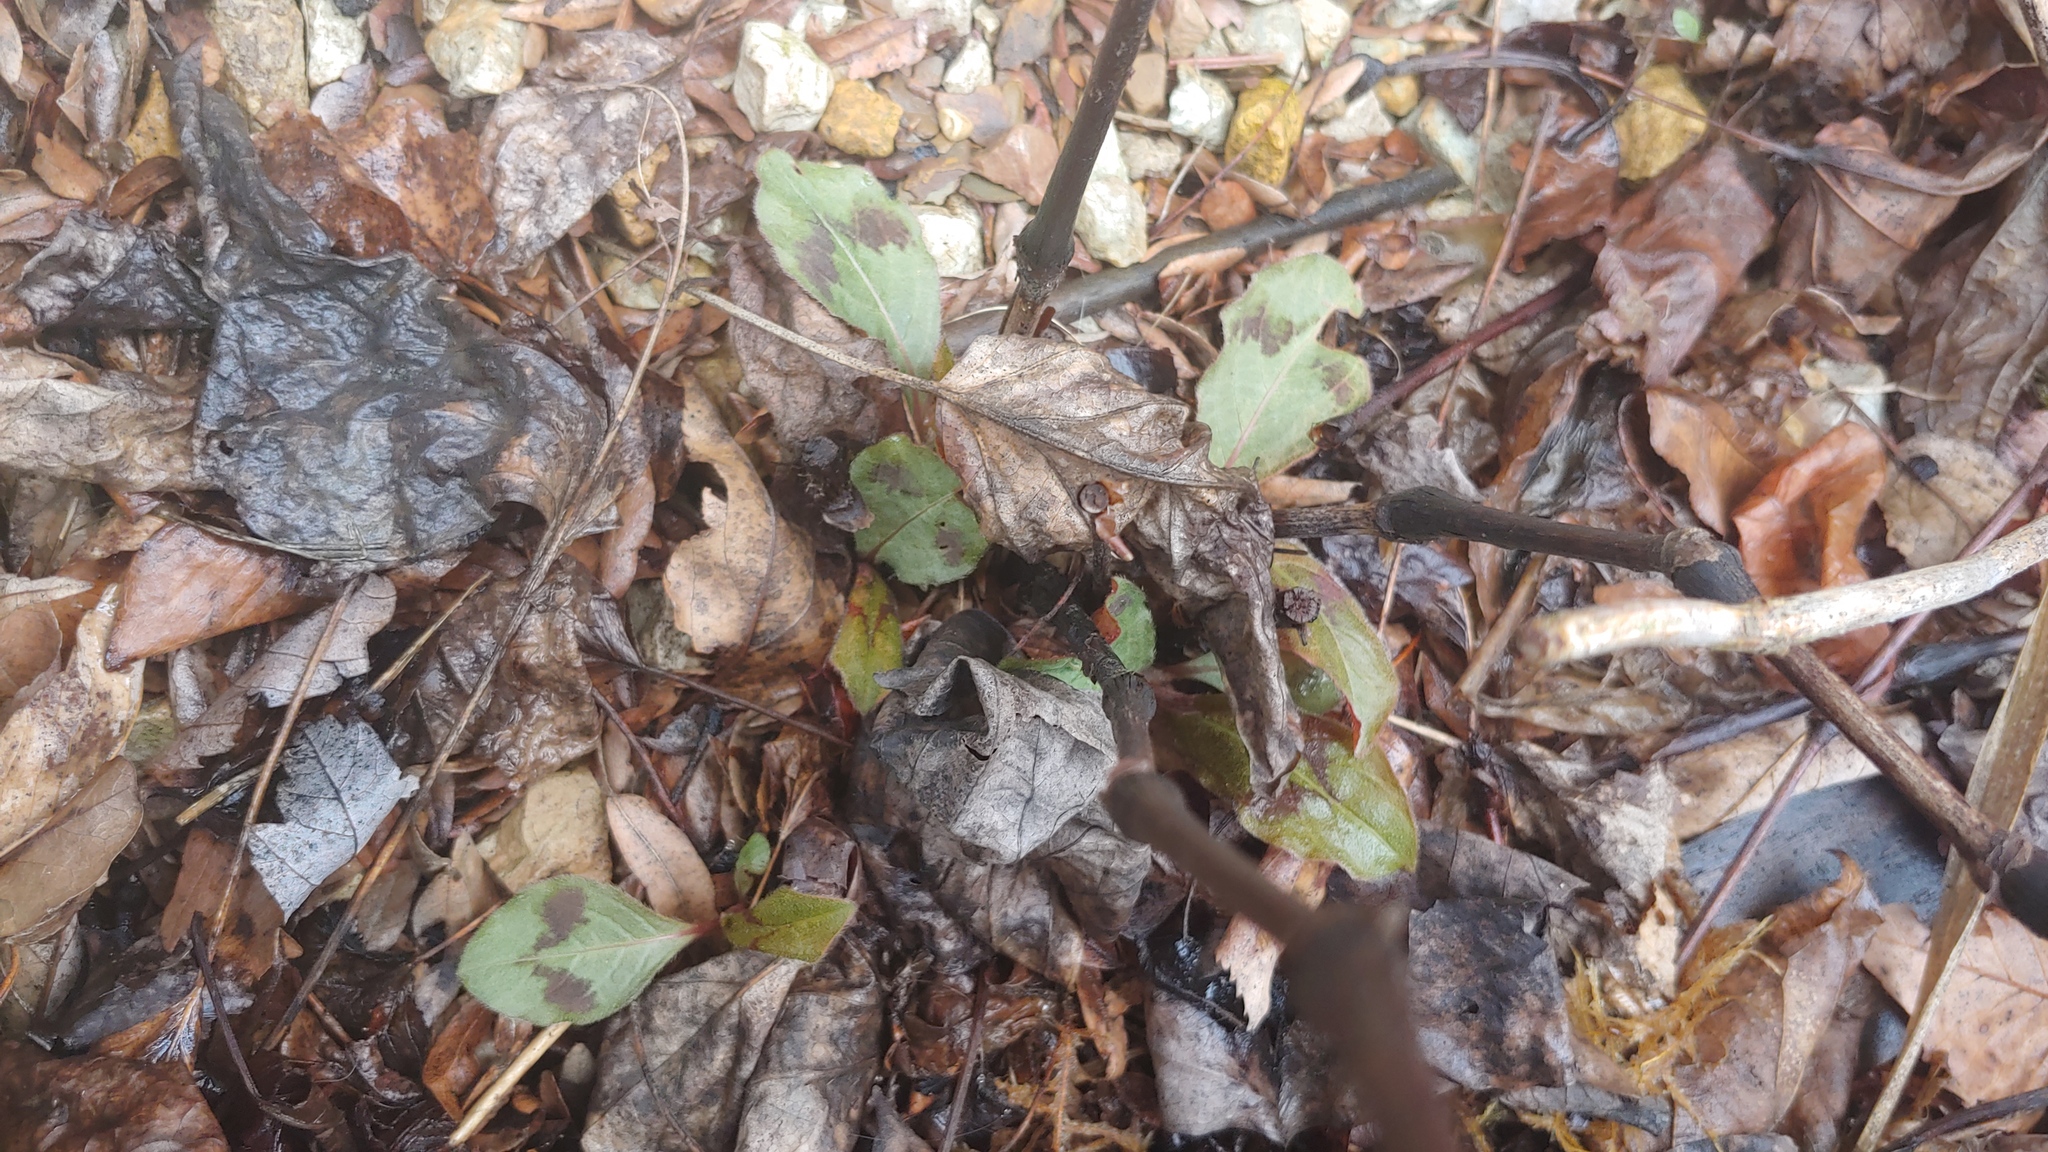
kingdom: Plantae
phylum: Tracheophyta
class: Magnoliopsida
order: Caryophyllales
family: Polygonaceae
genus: Persicaria
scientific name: Persicaria filiformis
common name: Asian jumpseed
